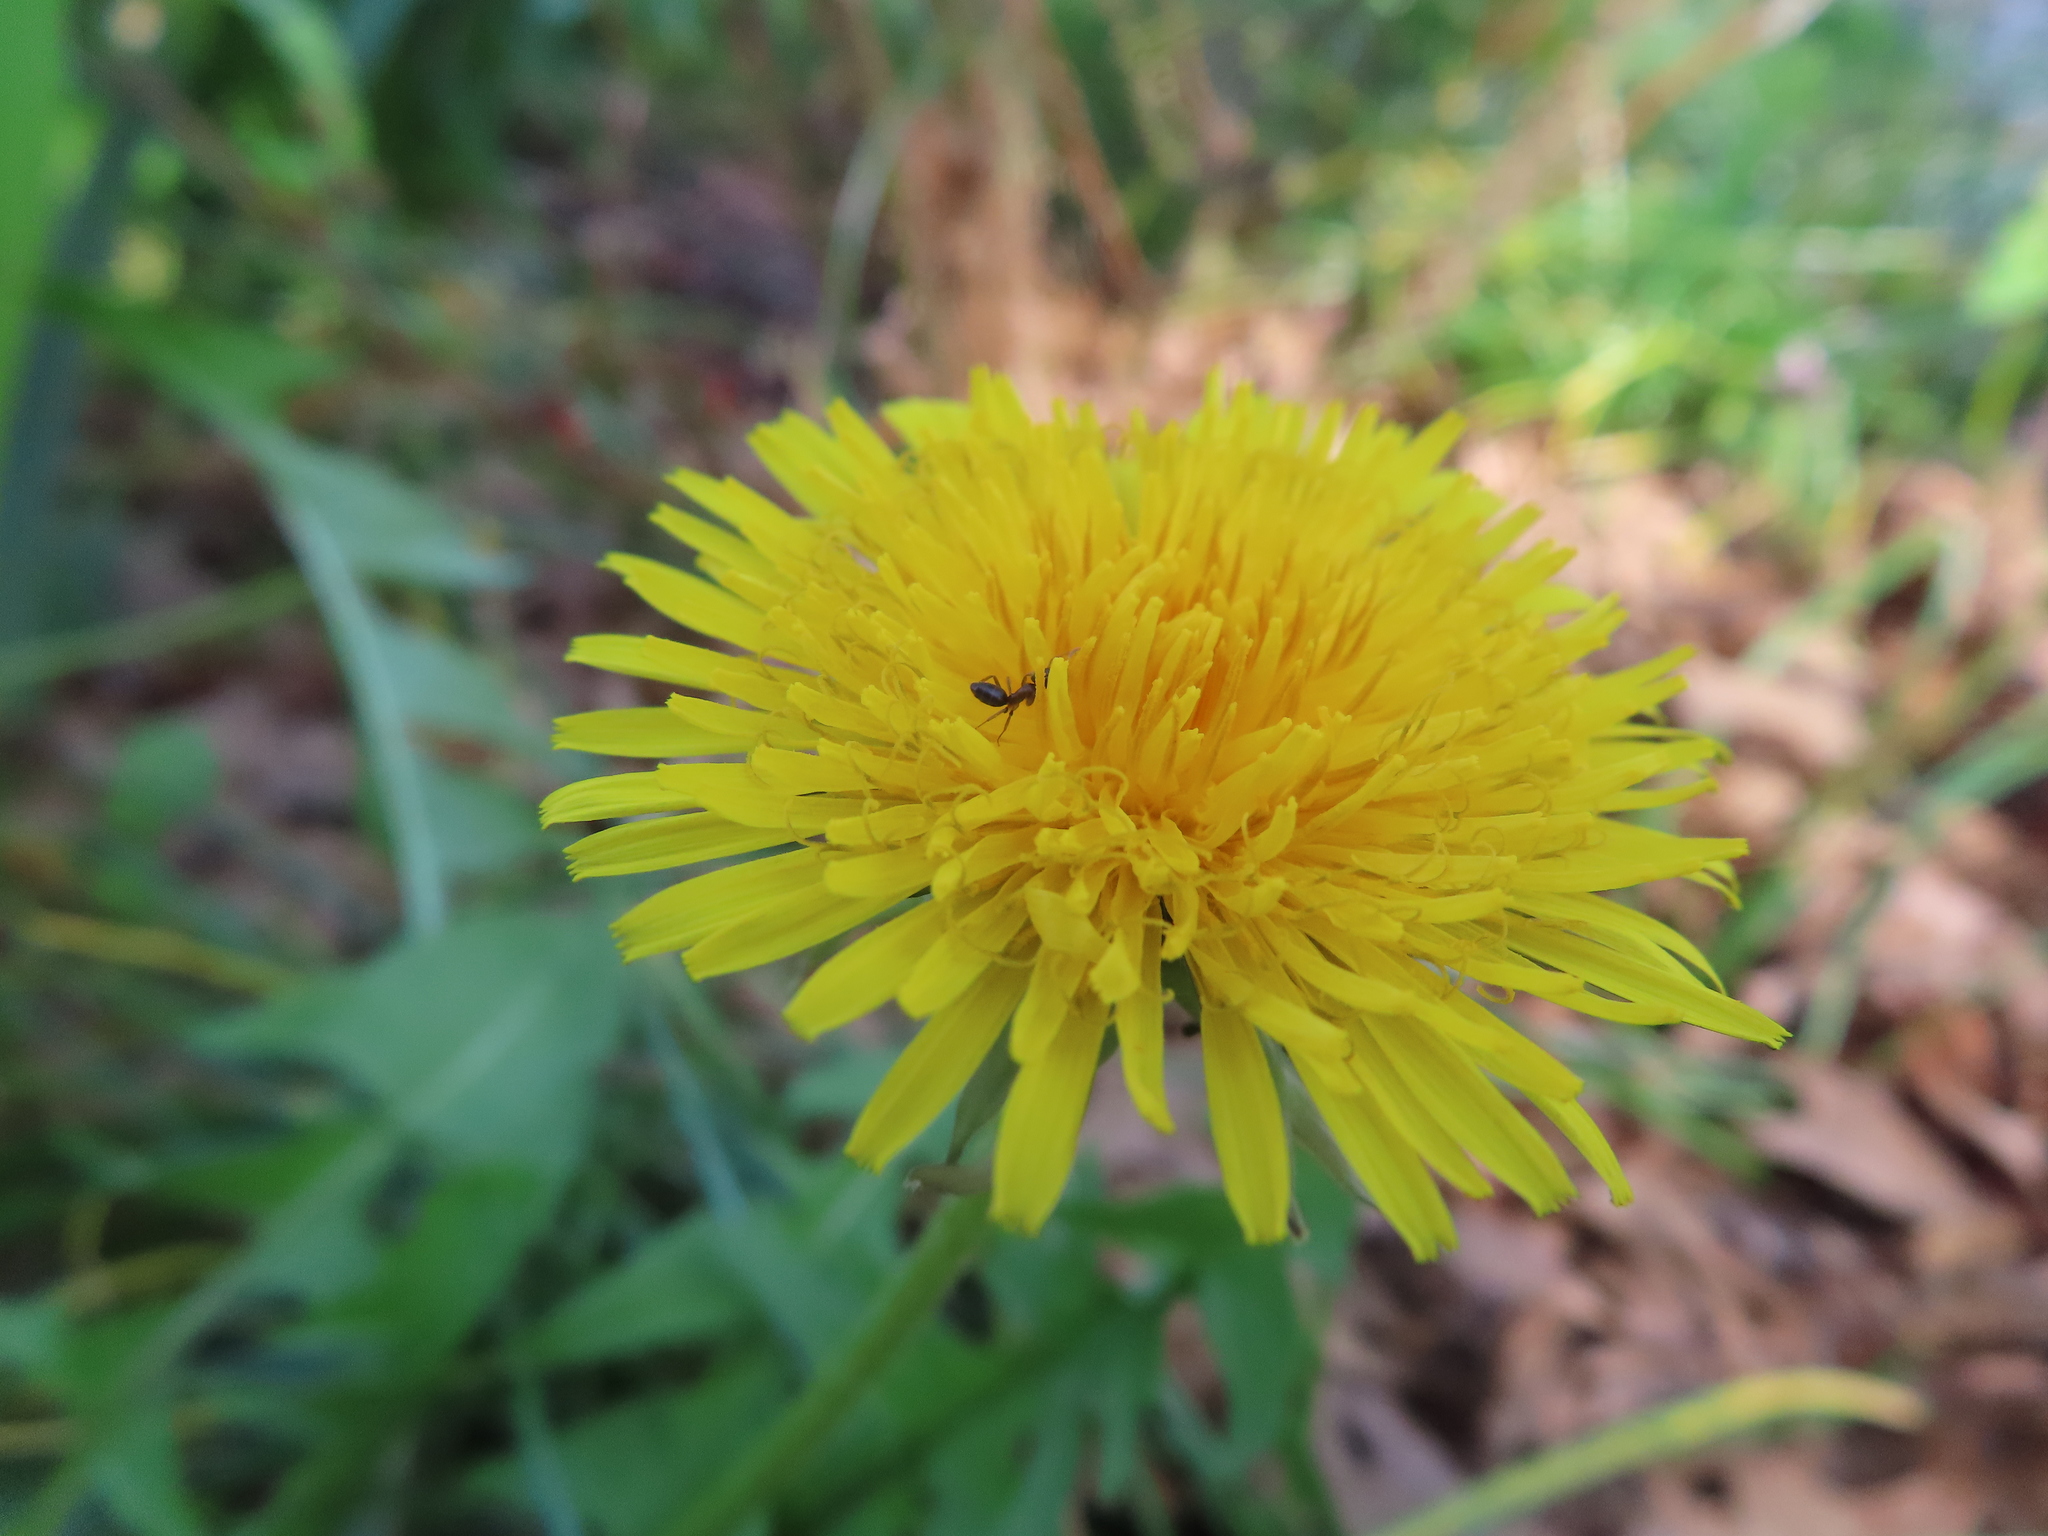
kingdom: Animalia
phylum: Arthropoda
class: Insecta
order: Hymenoptera
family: Formicidae
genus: Tapinoma
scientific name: Tapinoma sessile
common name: Odorous house ant
